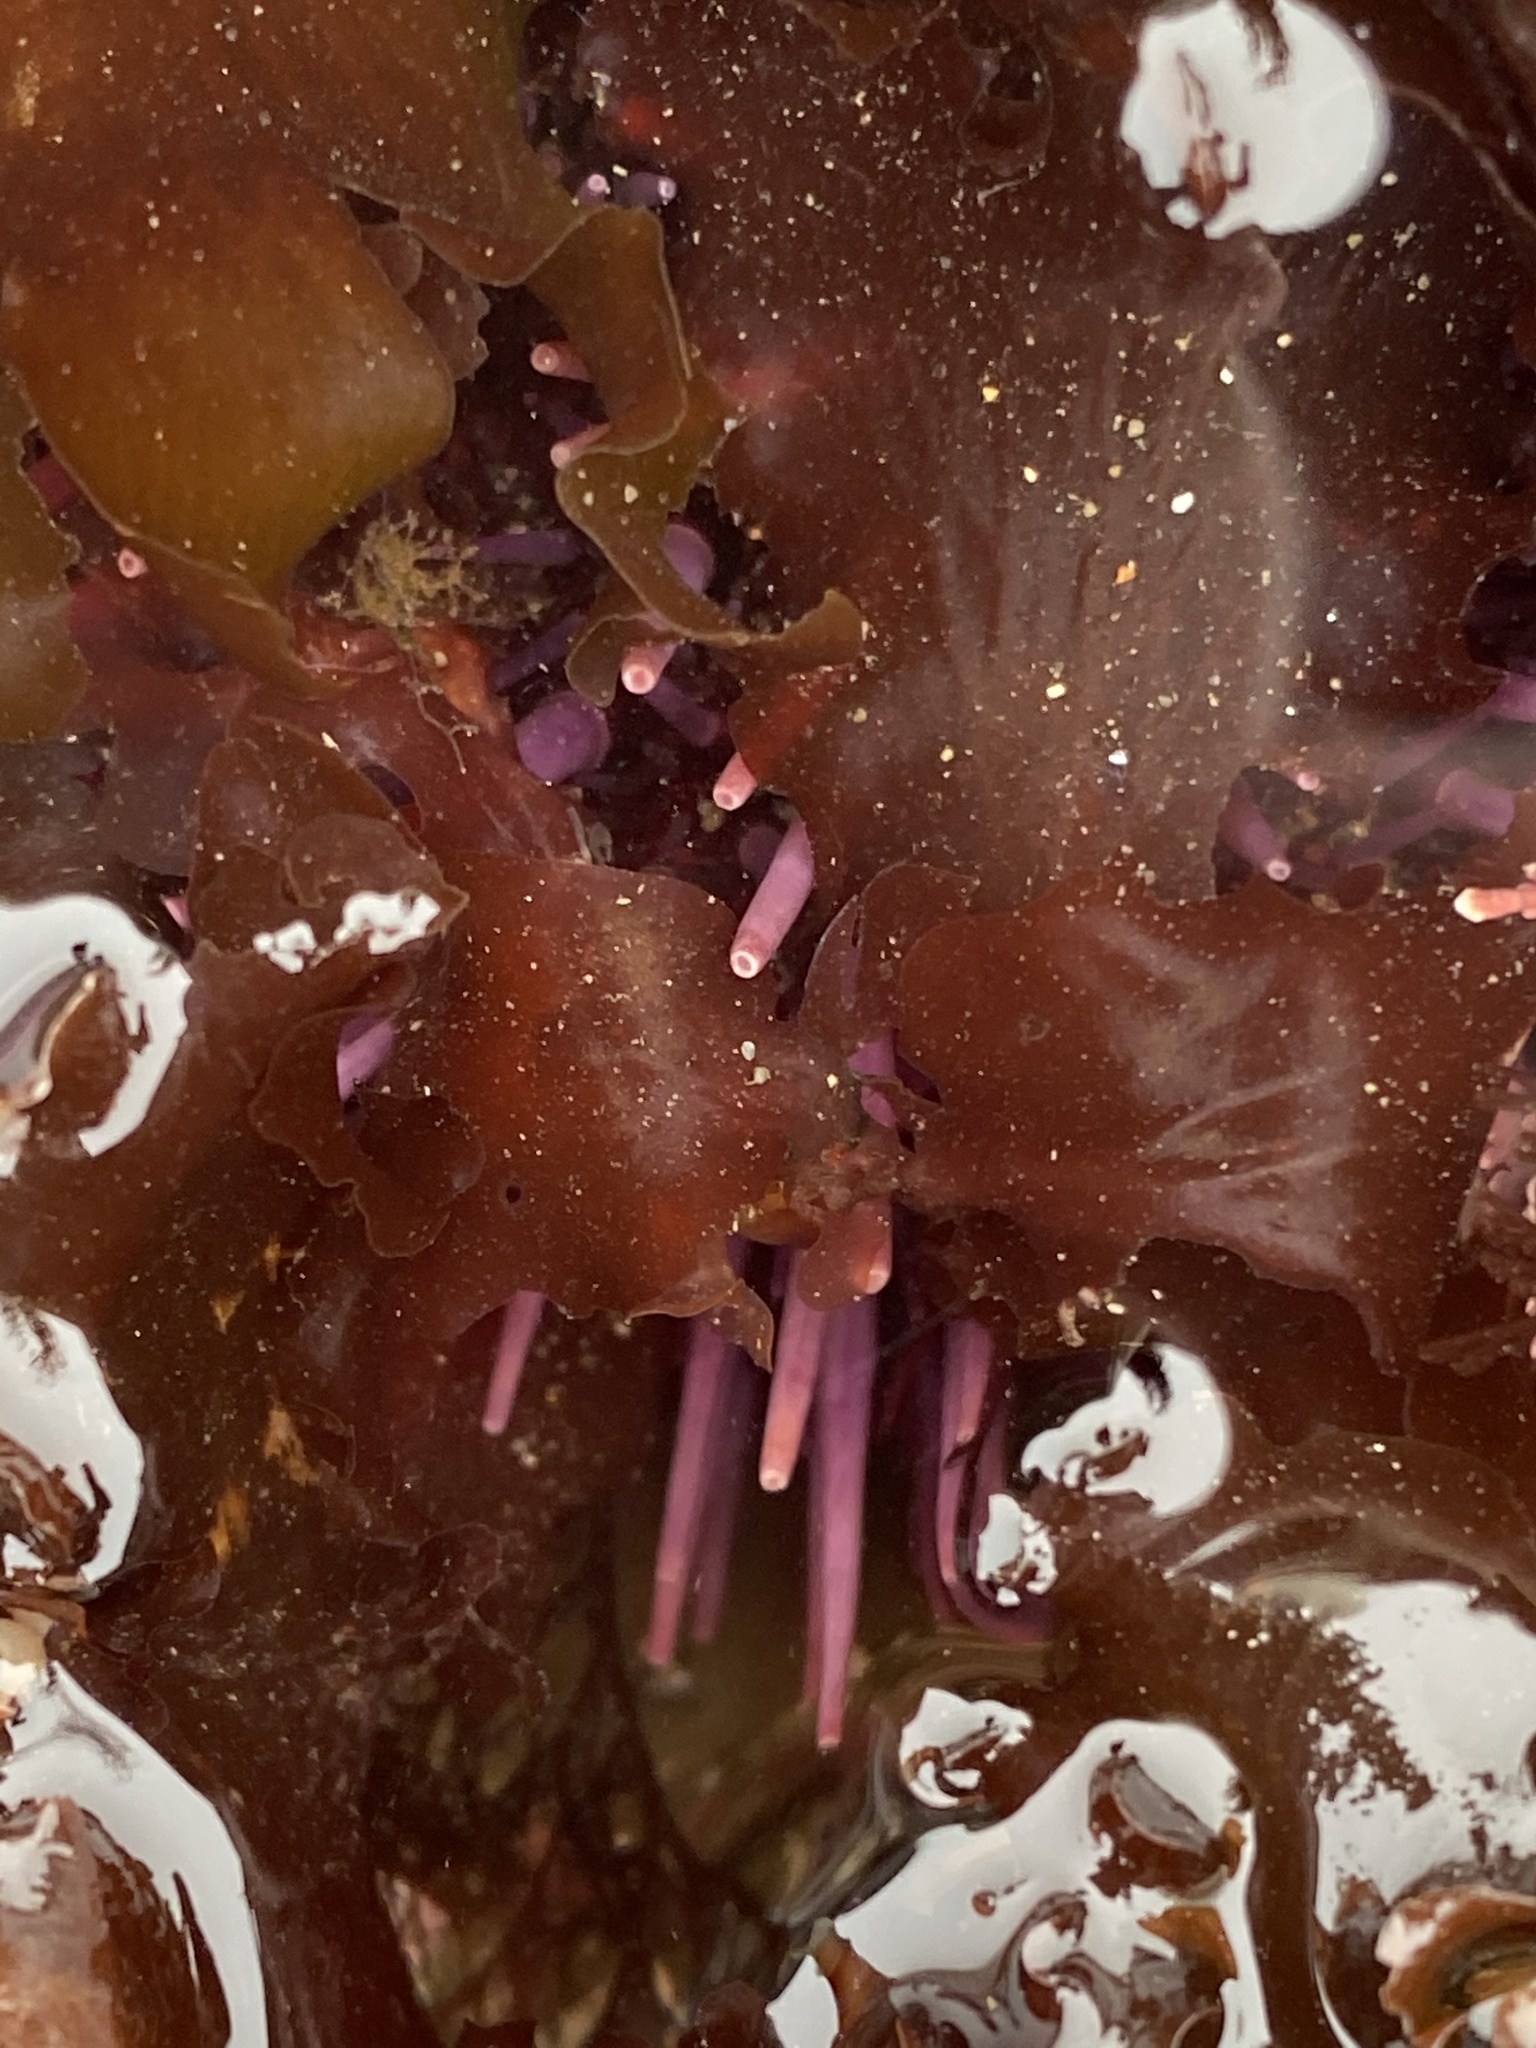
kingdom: Animalia
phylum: Echinodermata
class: Echinoidea
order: Camarodonta
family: Strongylocentrotidae
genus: Strongylocentrotus
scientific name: Strongylocentrotus purpuratus
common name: Purple sea urchin
